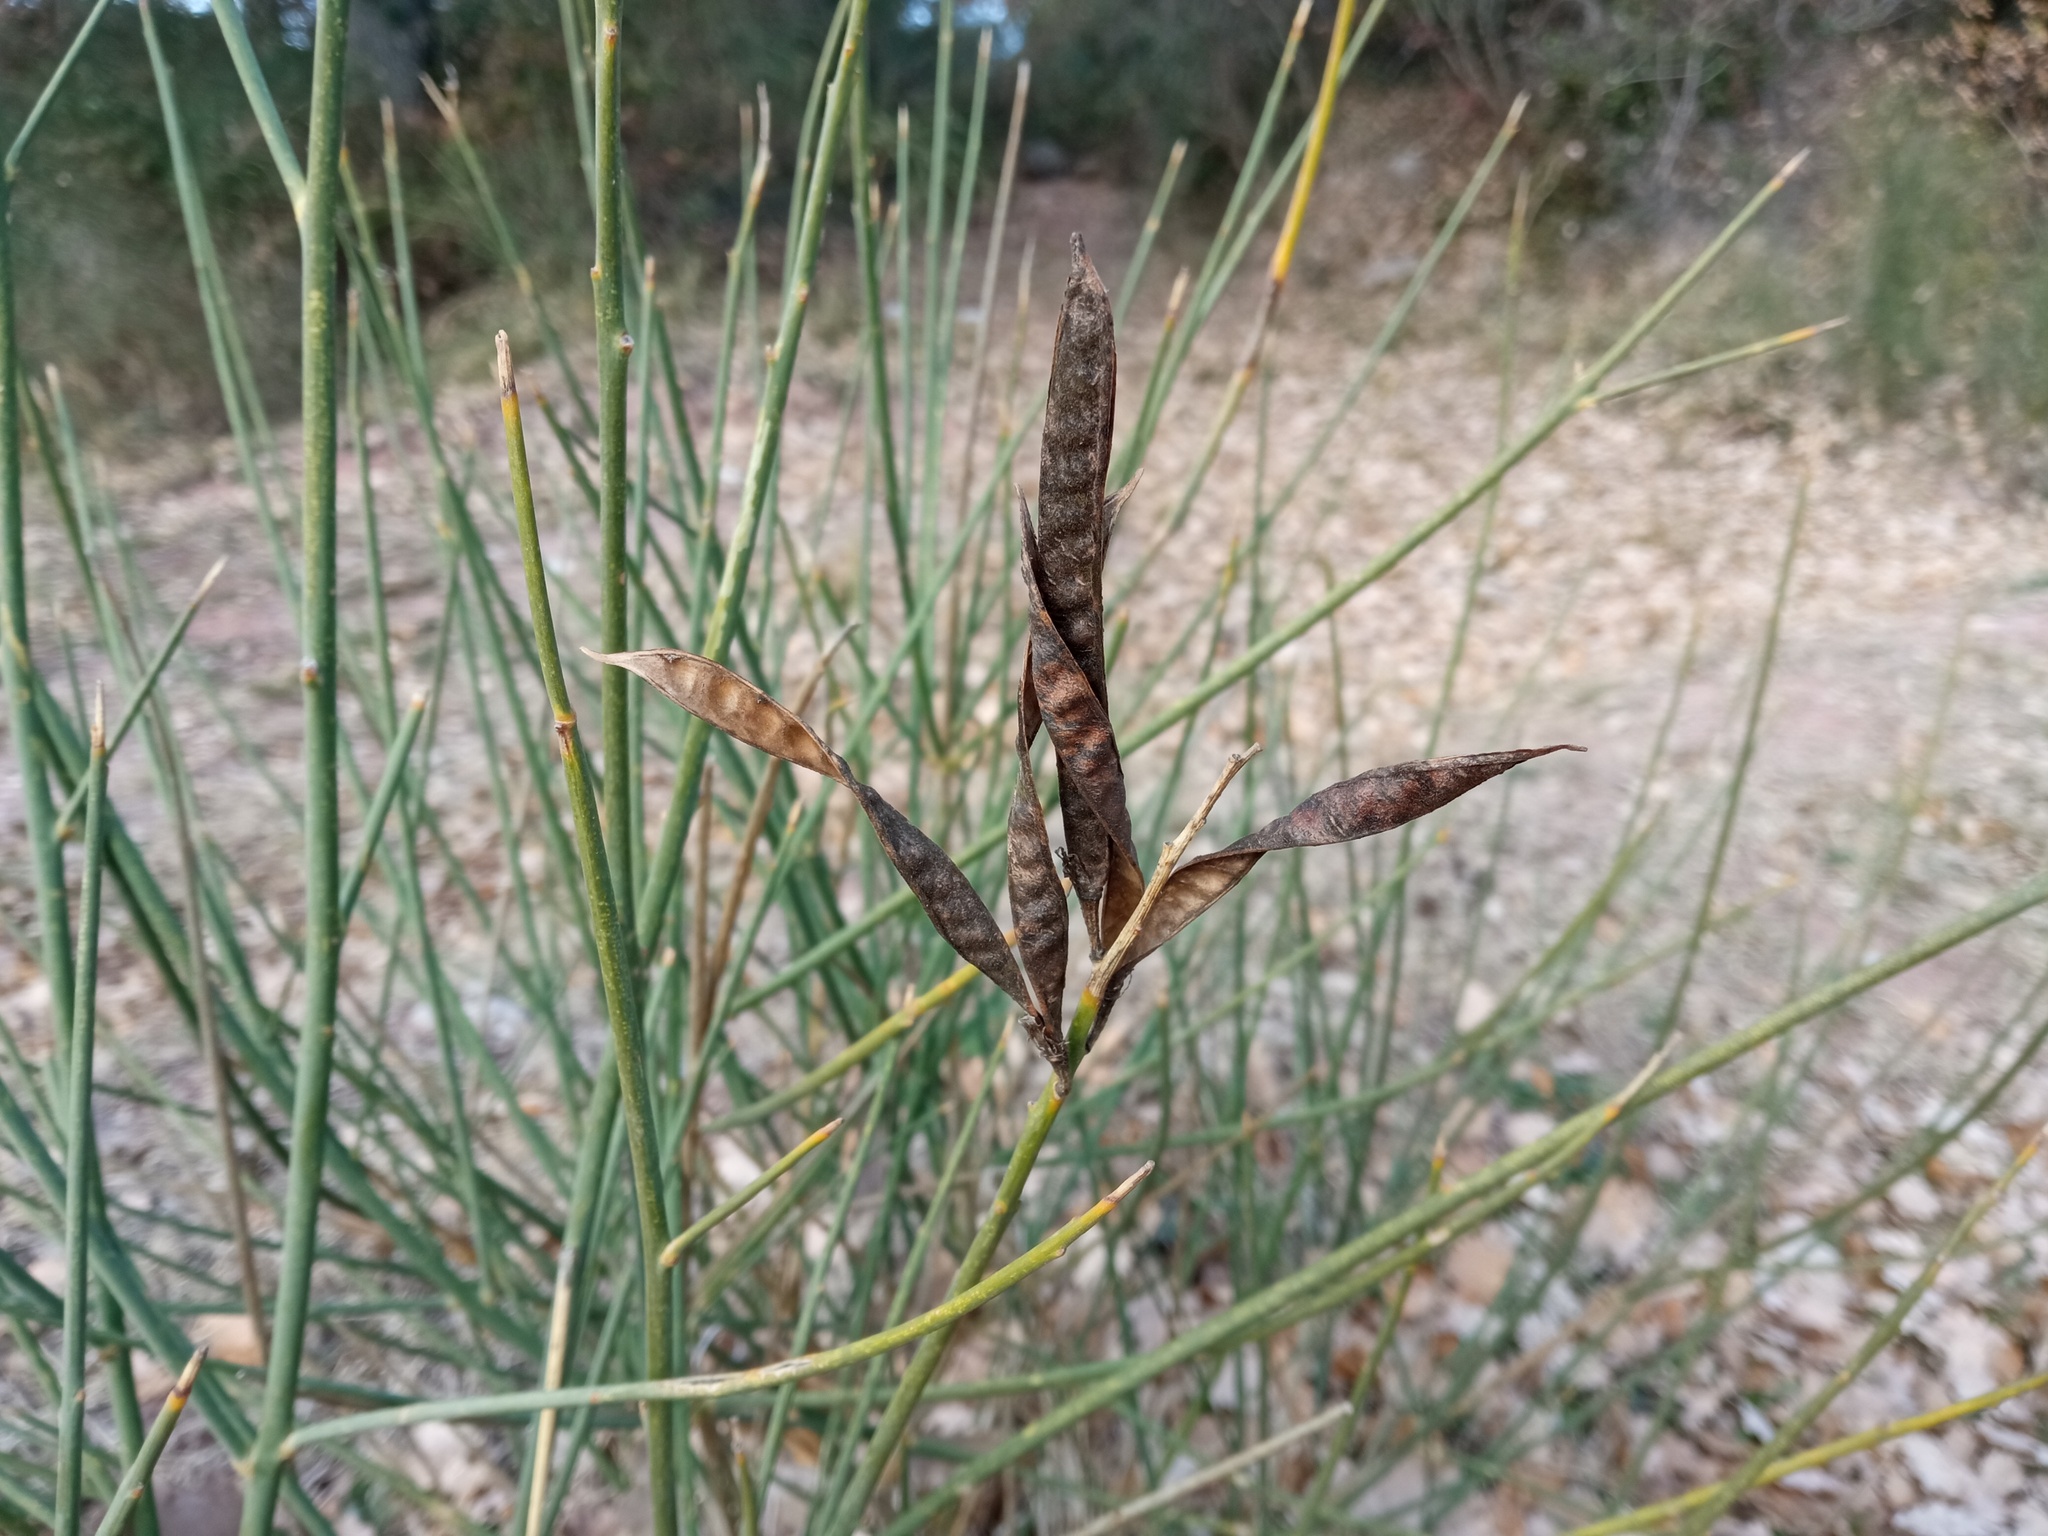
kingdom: Plantae
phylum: Tracheophyta
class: Magnoliopsida
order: Fabales
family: Fabaceae
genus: Spartium
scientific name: Spartium junceum
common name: Spanish broom
